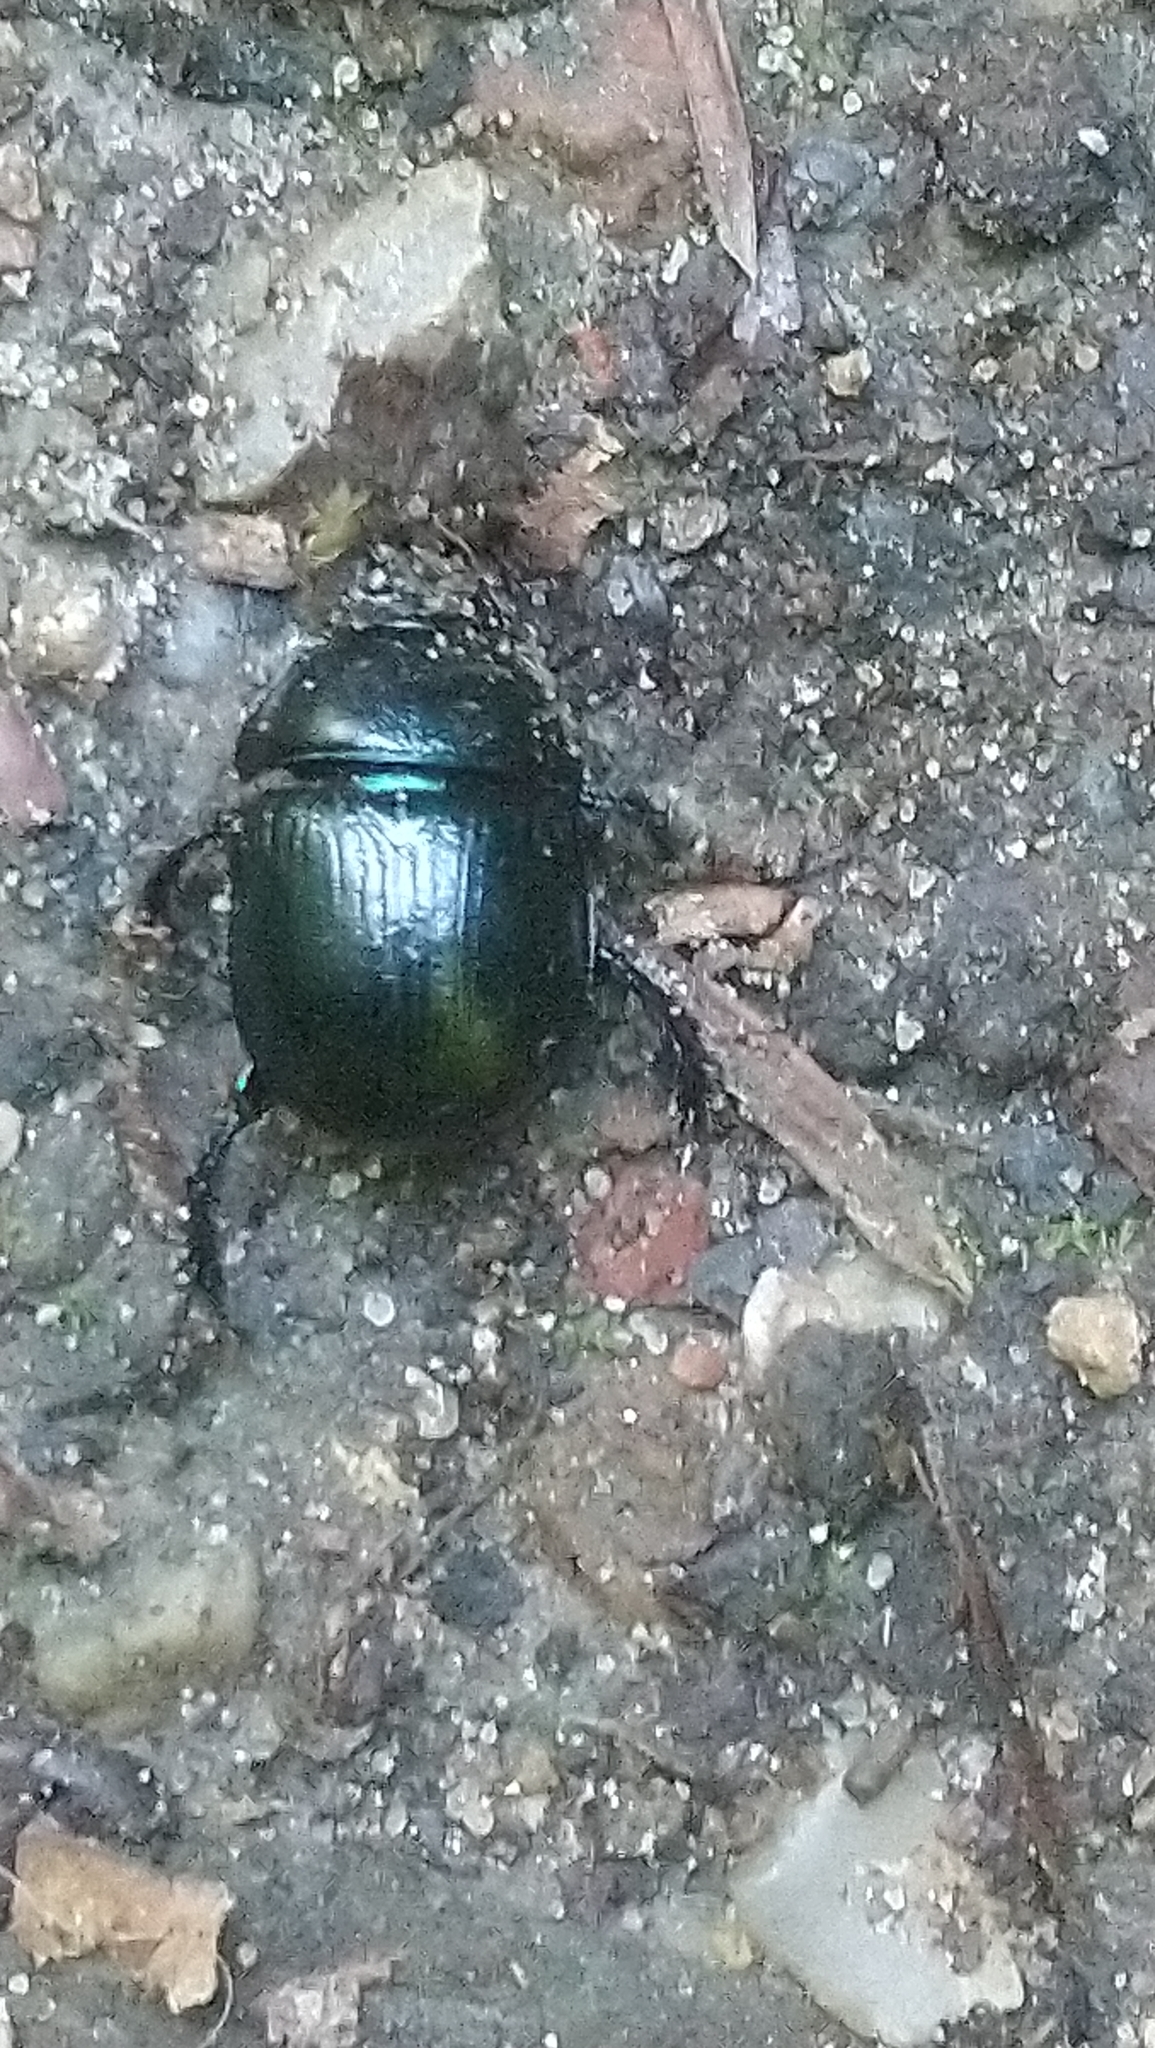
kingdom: Animalia
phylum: Arthropoda
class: Insecta
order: Coleoptera
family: Geotrupidae
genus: Anoplotrupes
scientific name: Anoplotrupes stercorosus
